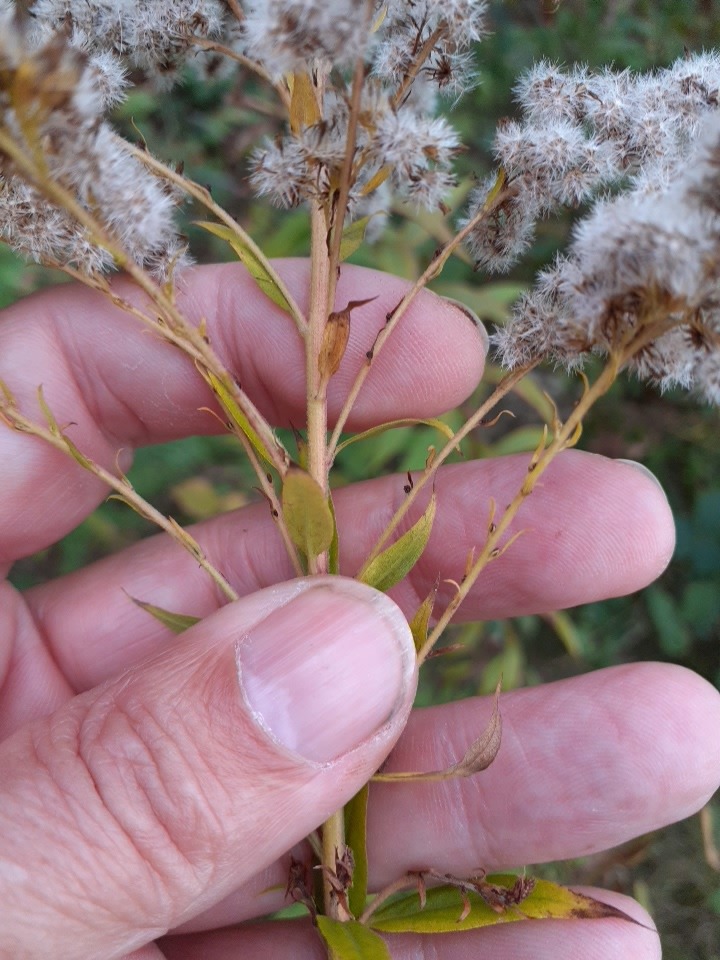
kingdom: Plantae
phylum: Tracheophyta
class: Magnoliopsida
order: Asterales
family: Asteraceae
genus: Solidago
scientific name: Solidago canadensis
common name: Canada goldenrod
